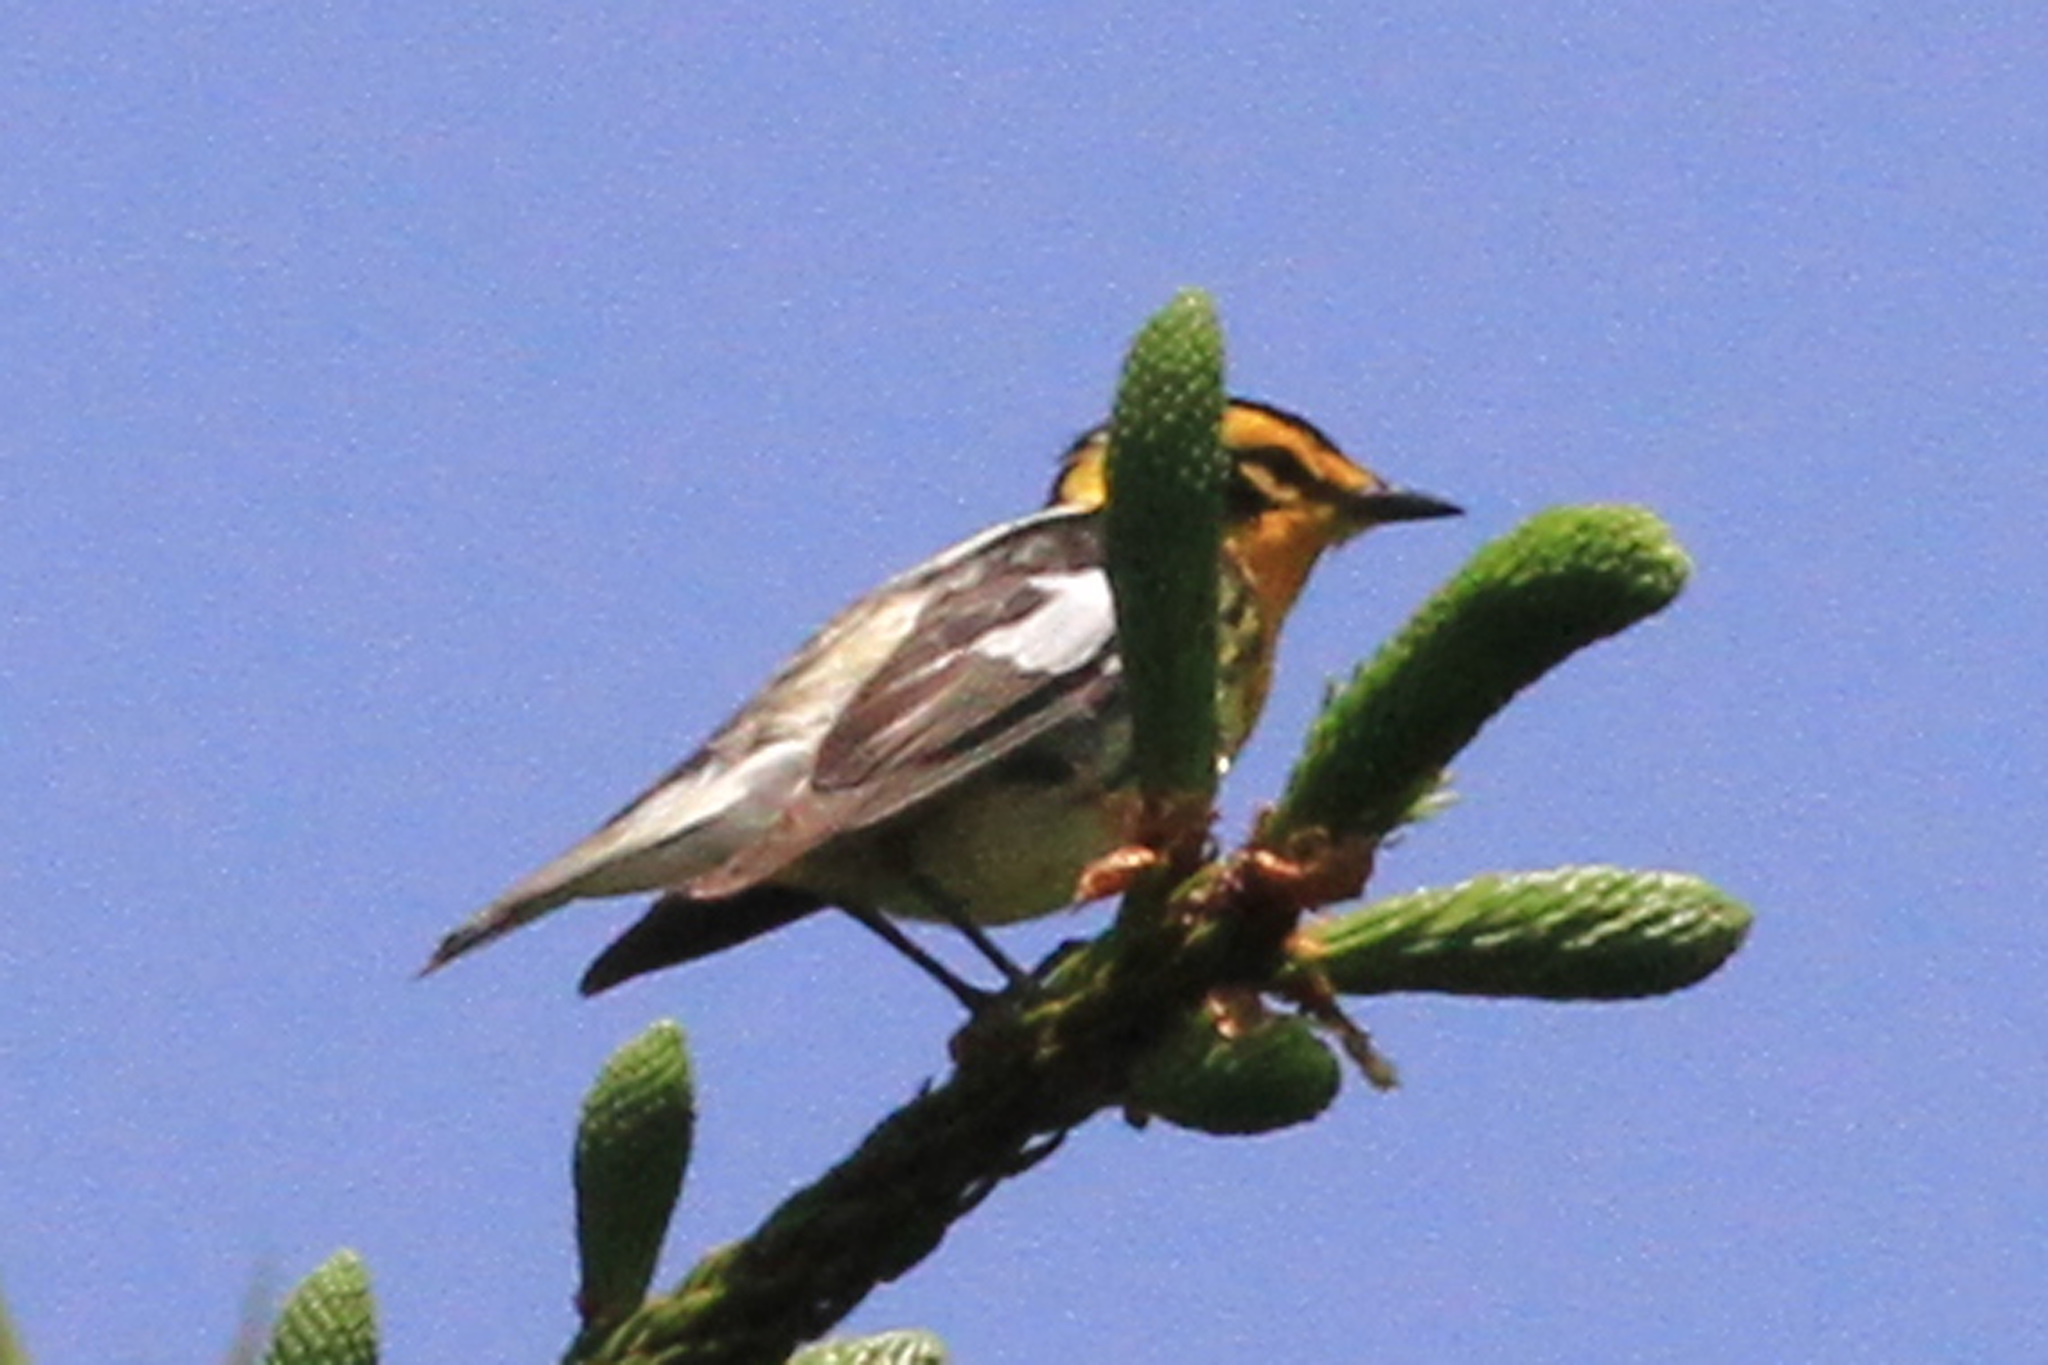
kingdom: Animalia
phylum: Chordata
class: Aves
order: Passeriformes
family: Parulidae
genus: Setophaga
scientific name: Setophaga fusca
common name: Blackburnian warbler
